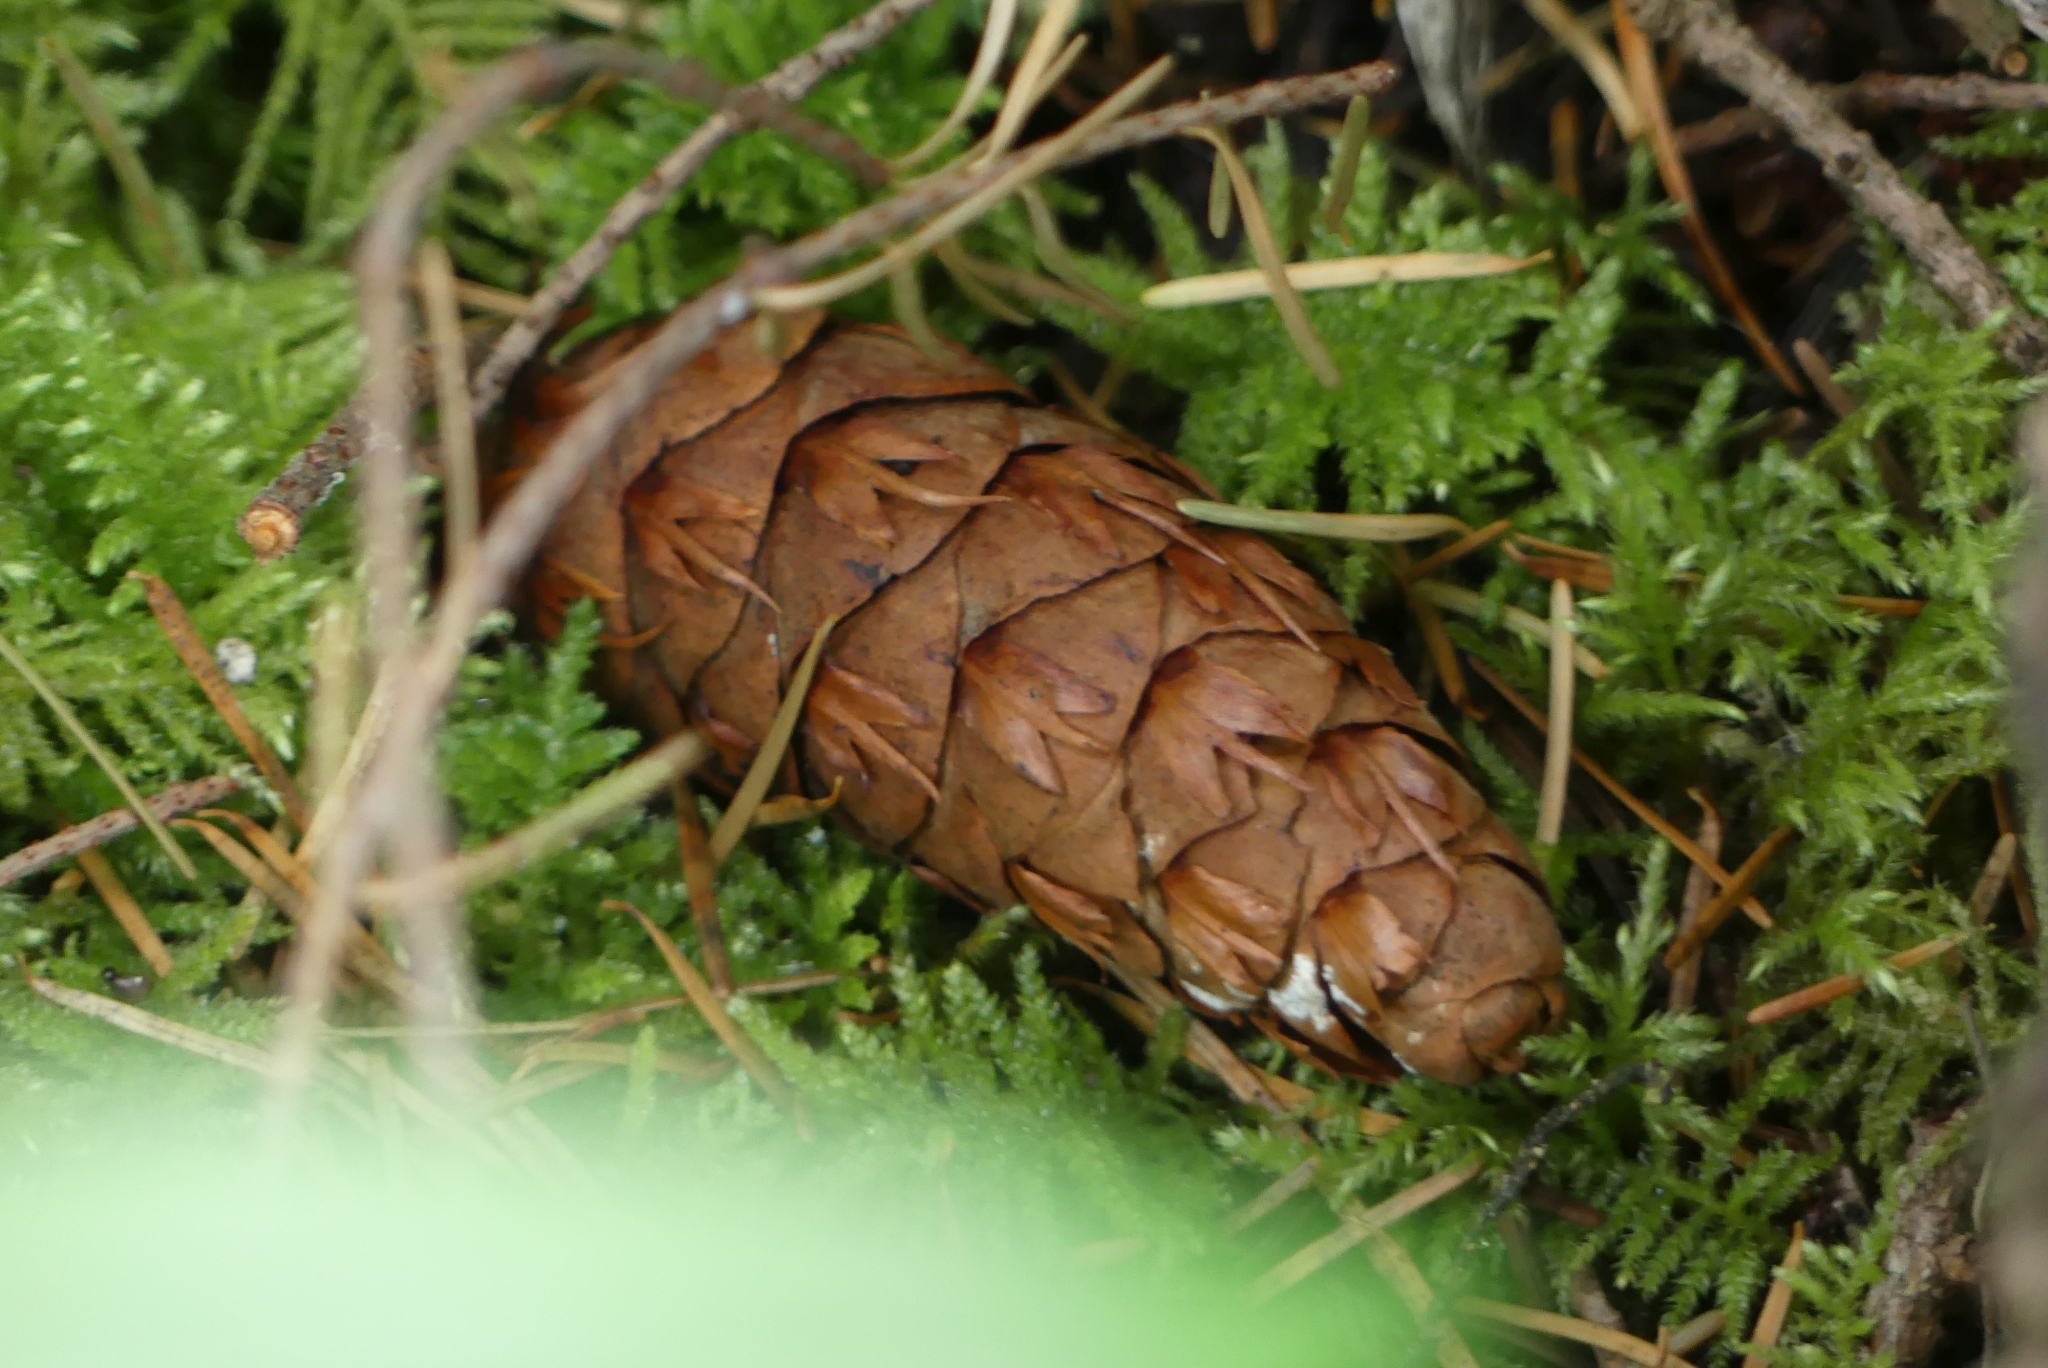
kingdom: Plantae
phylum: Tracheophyta
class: Pinopsida
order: Pinales
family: Pinaceae
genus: Pseudotsuga
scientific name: Pseudotsuga menziesii
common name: Douglas fir
